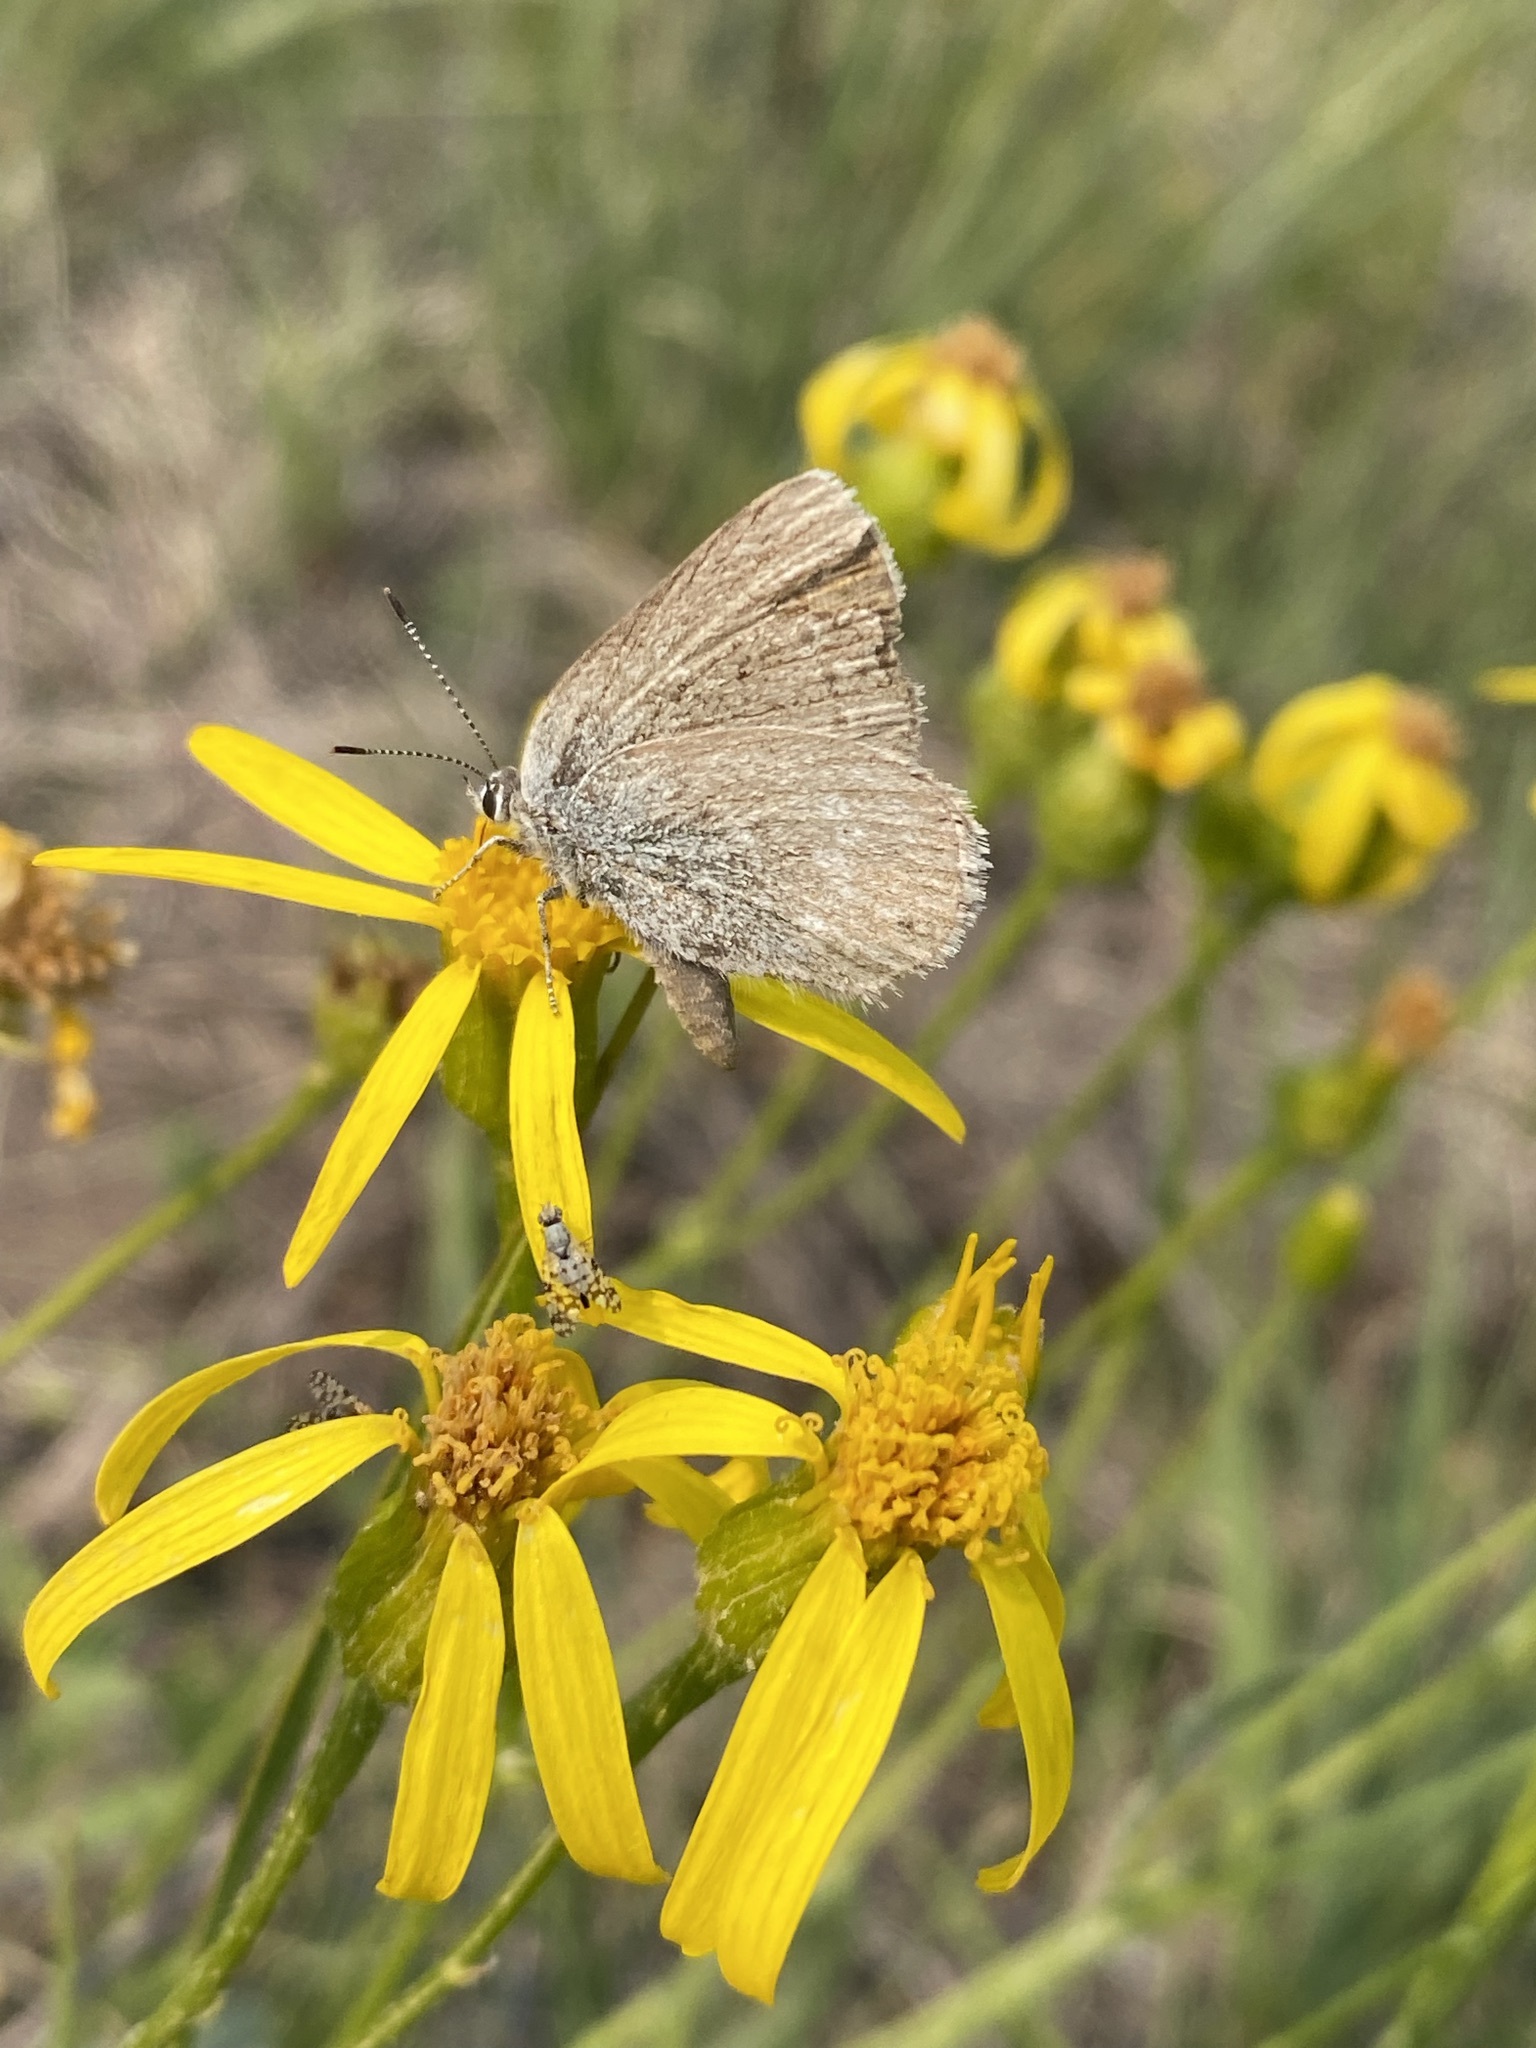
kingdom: Animalia
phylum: Arthropoda
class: Insecta
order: Lepidoptera
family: Lycaenidae
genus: Satyrium
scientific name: Satyrium fuliginosa
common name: Western sooty hairstreak
